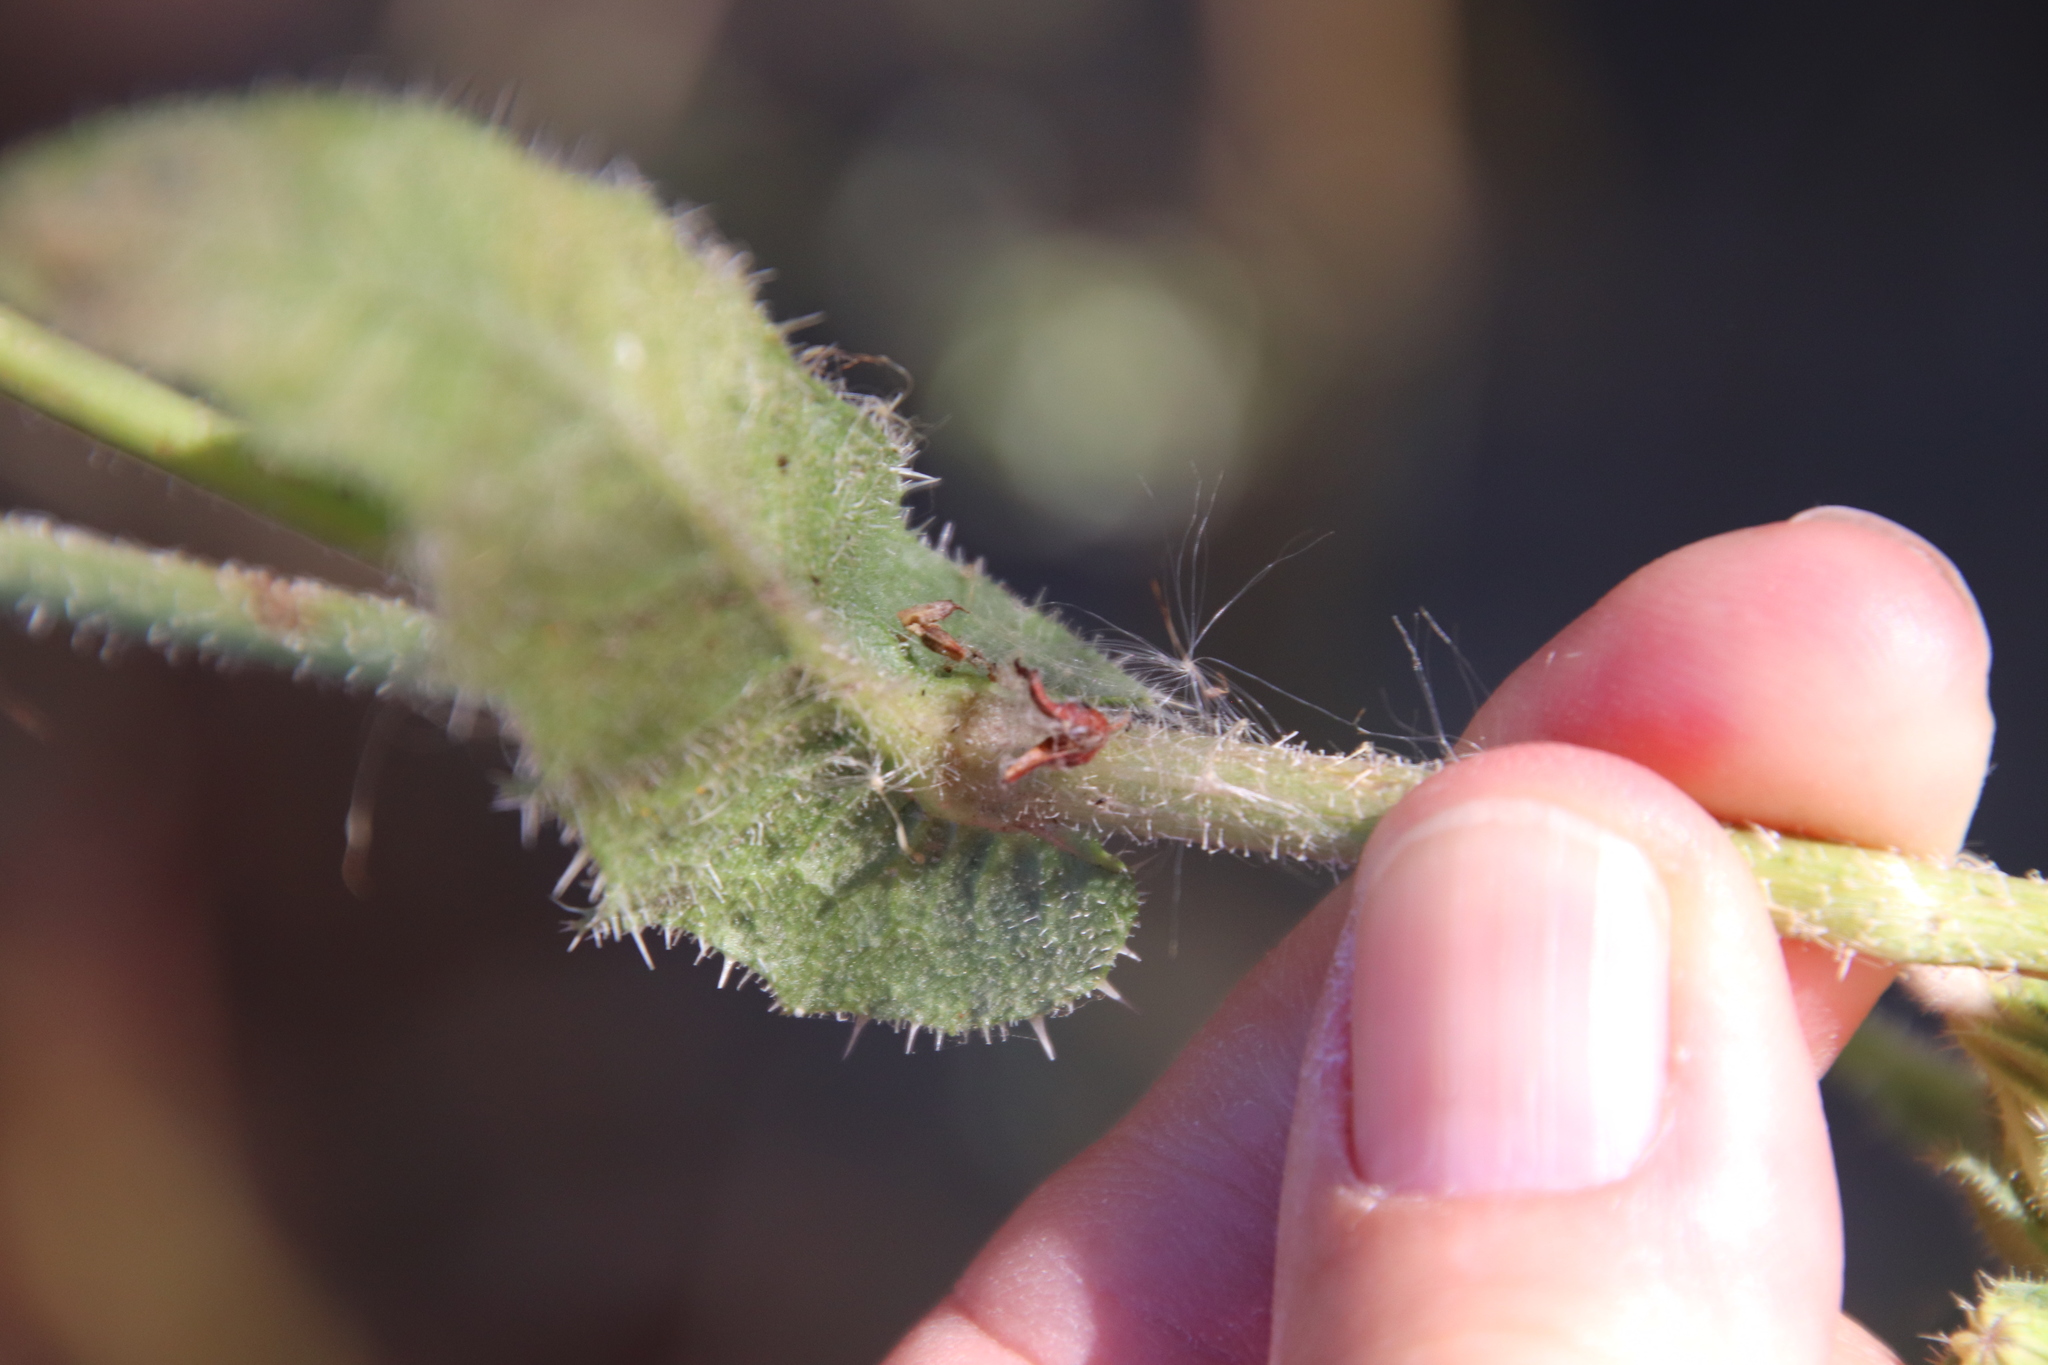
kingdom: Plantae
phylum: Tracheophyta
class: Magnoliopsida
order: Asterales
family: Asteraceae
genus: Helminthotheca
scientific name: Helminthotheca echioides
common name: Ox-tongue
